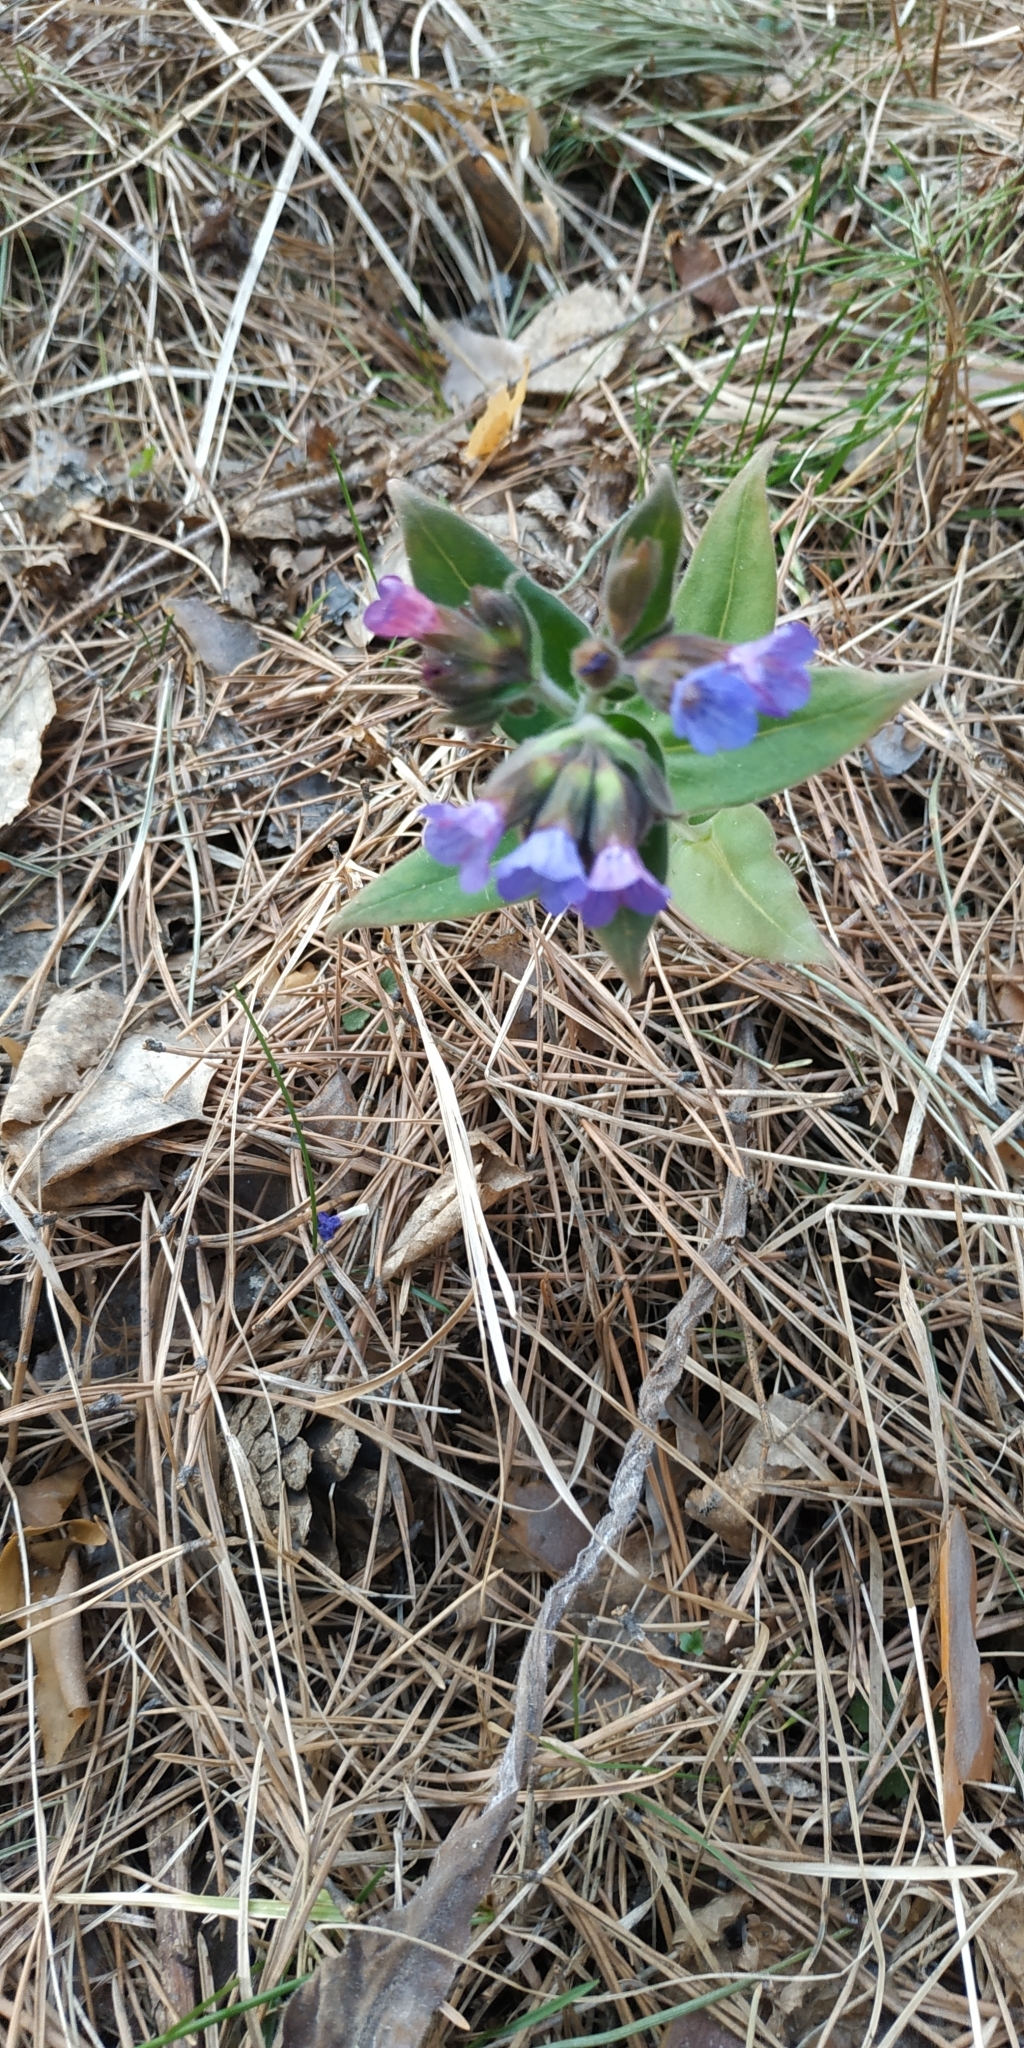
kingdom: Plantae
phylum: Tracheophyta
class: Magnoliopsida
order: Boraginales
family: Boraginaceae
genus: Pulmonaria
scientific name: Pulmonaria mollis
